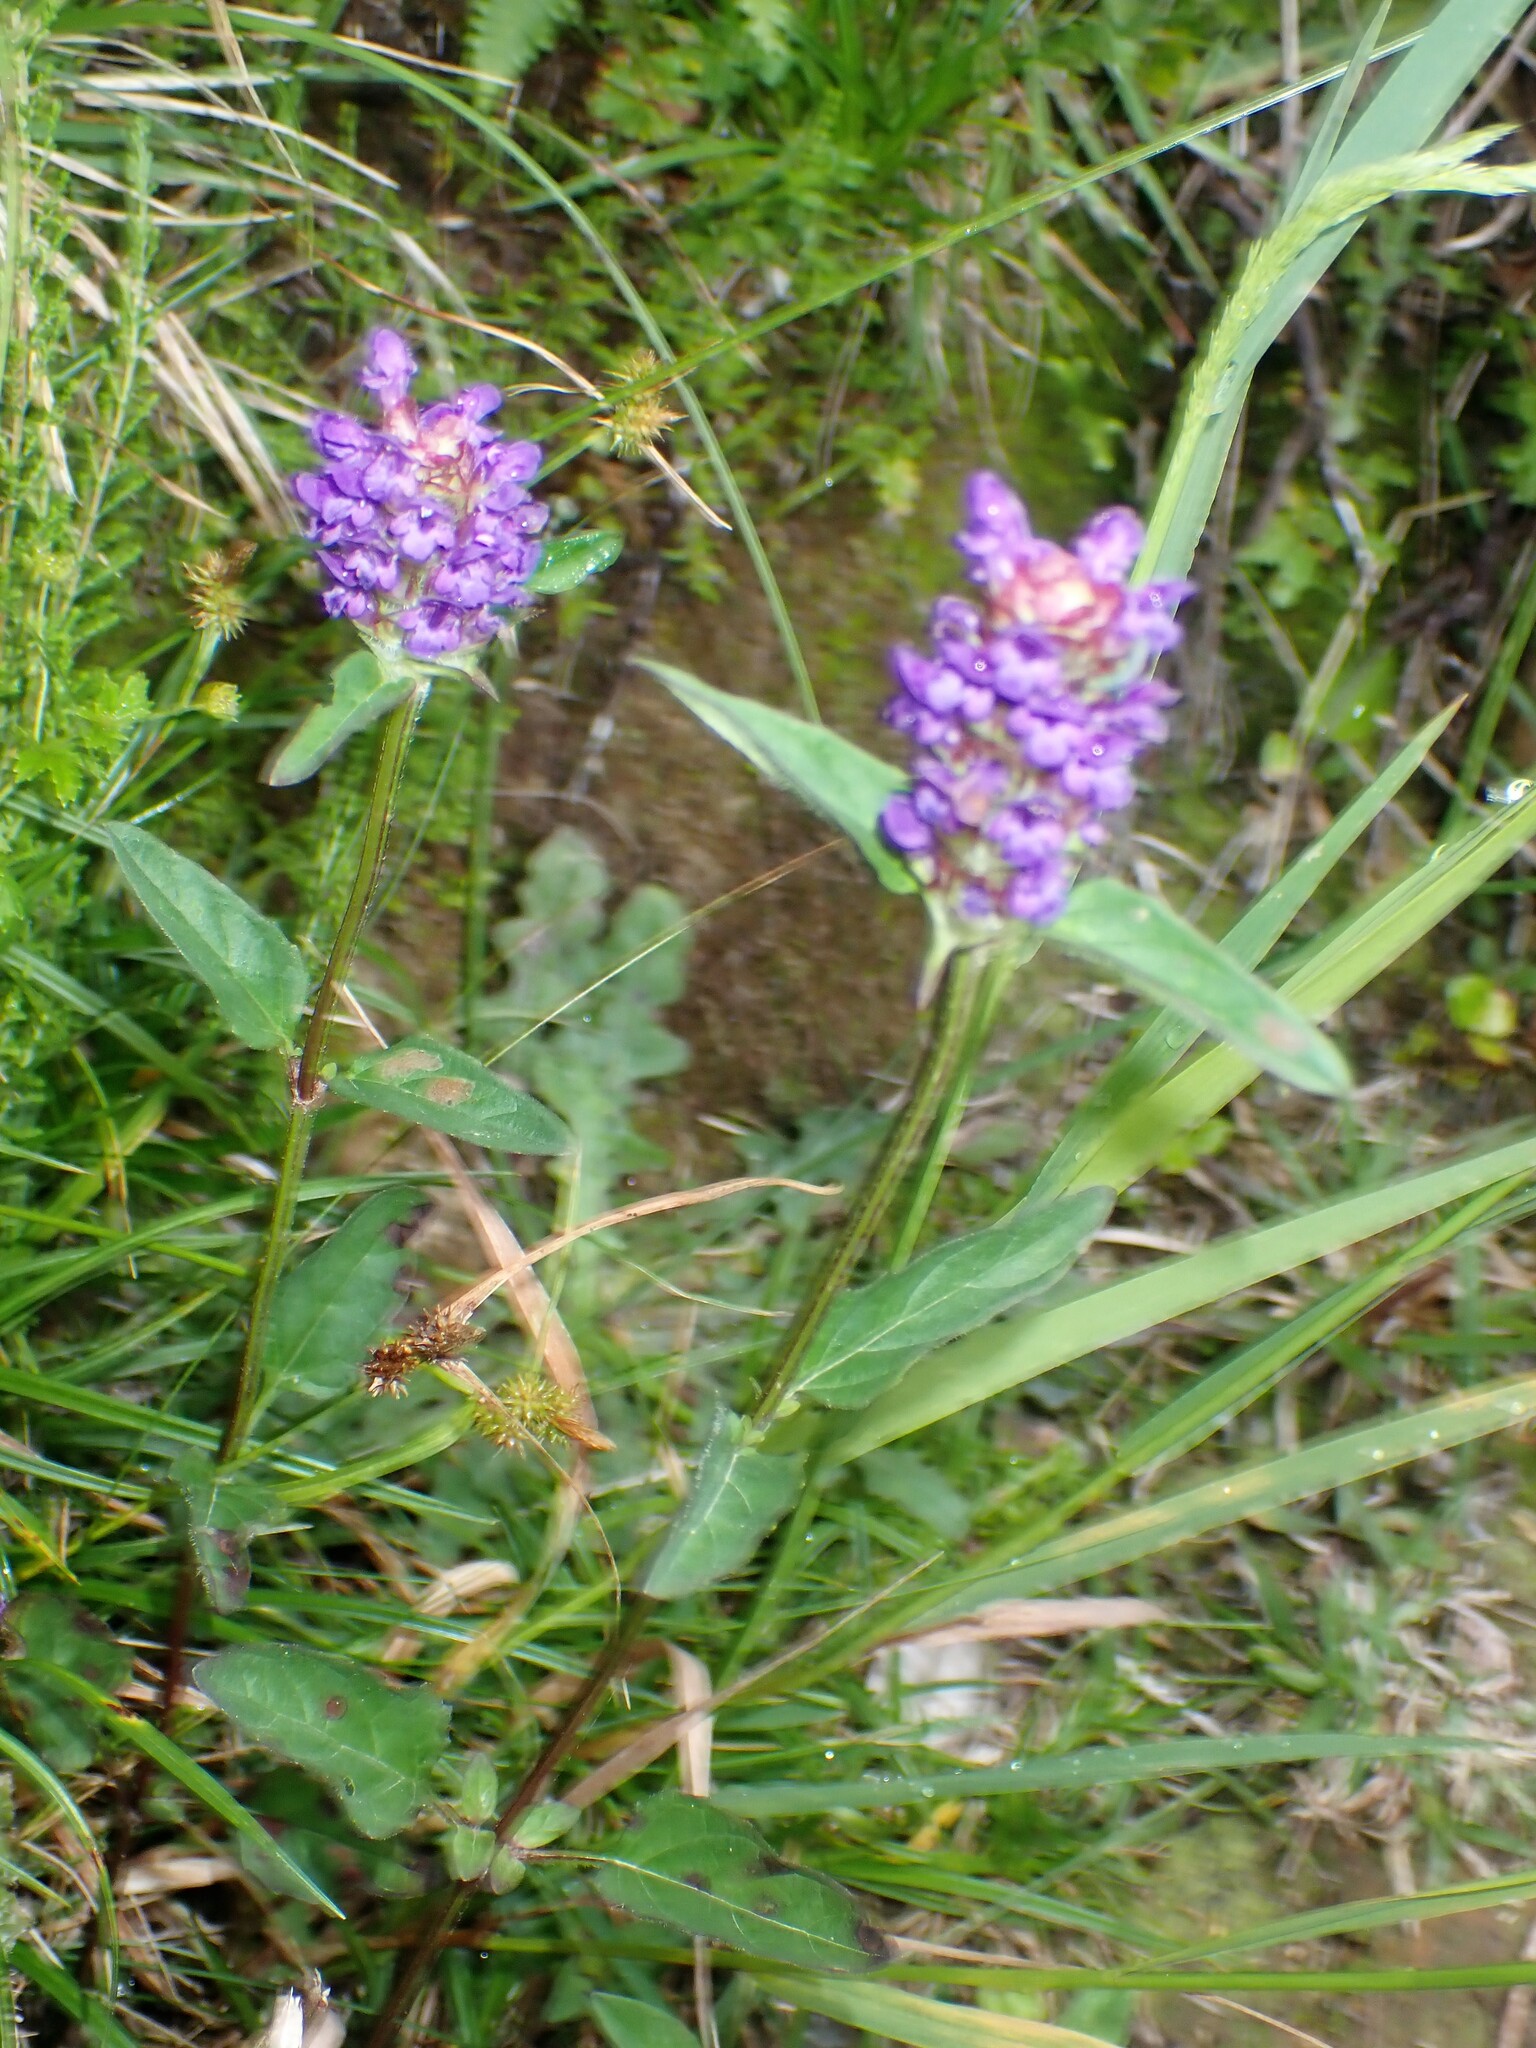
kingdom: Plantae
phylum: Tracheophyta
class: Magnoliopsida
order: Lamiales
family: Lamiaceae
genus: Prunella
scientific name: Prunella vulgaris
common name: Heal-all
